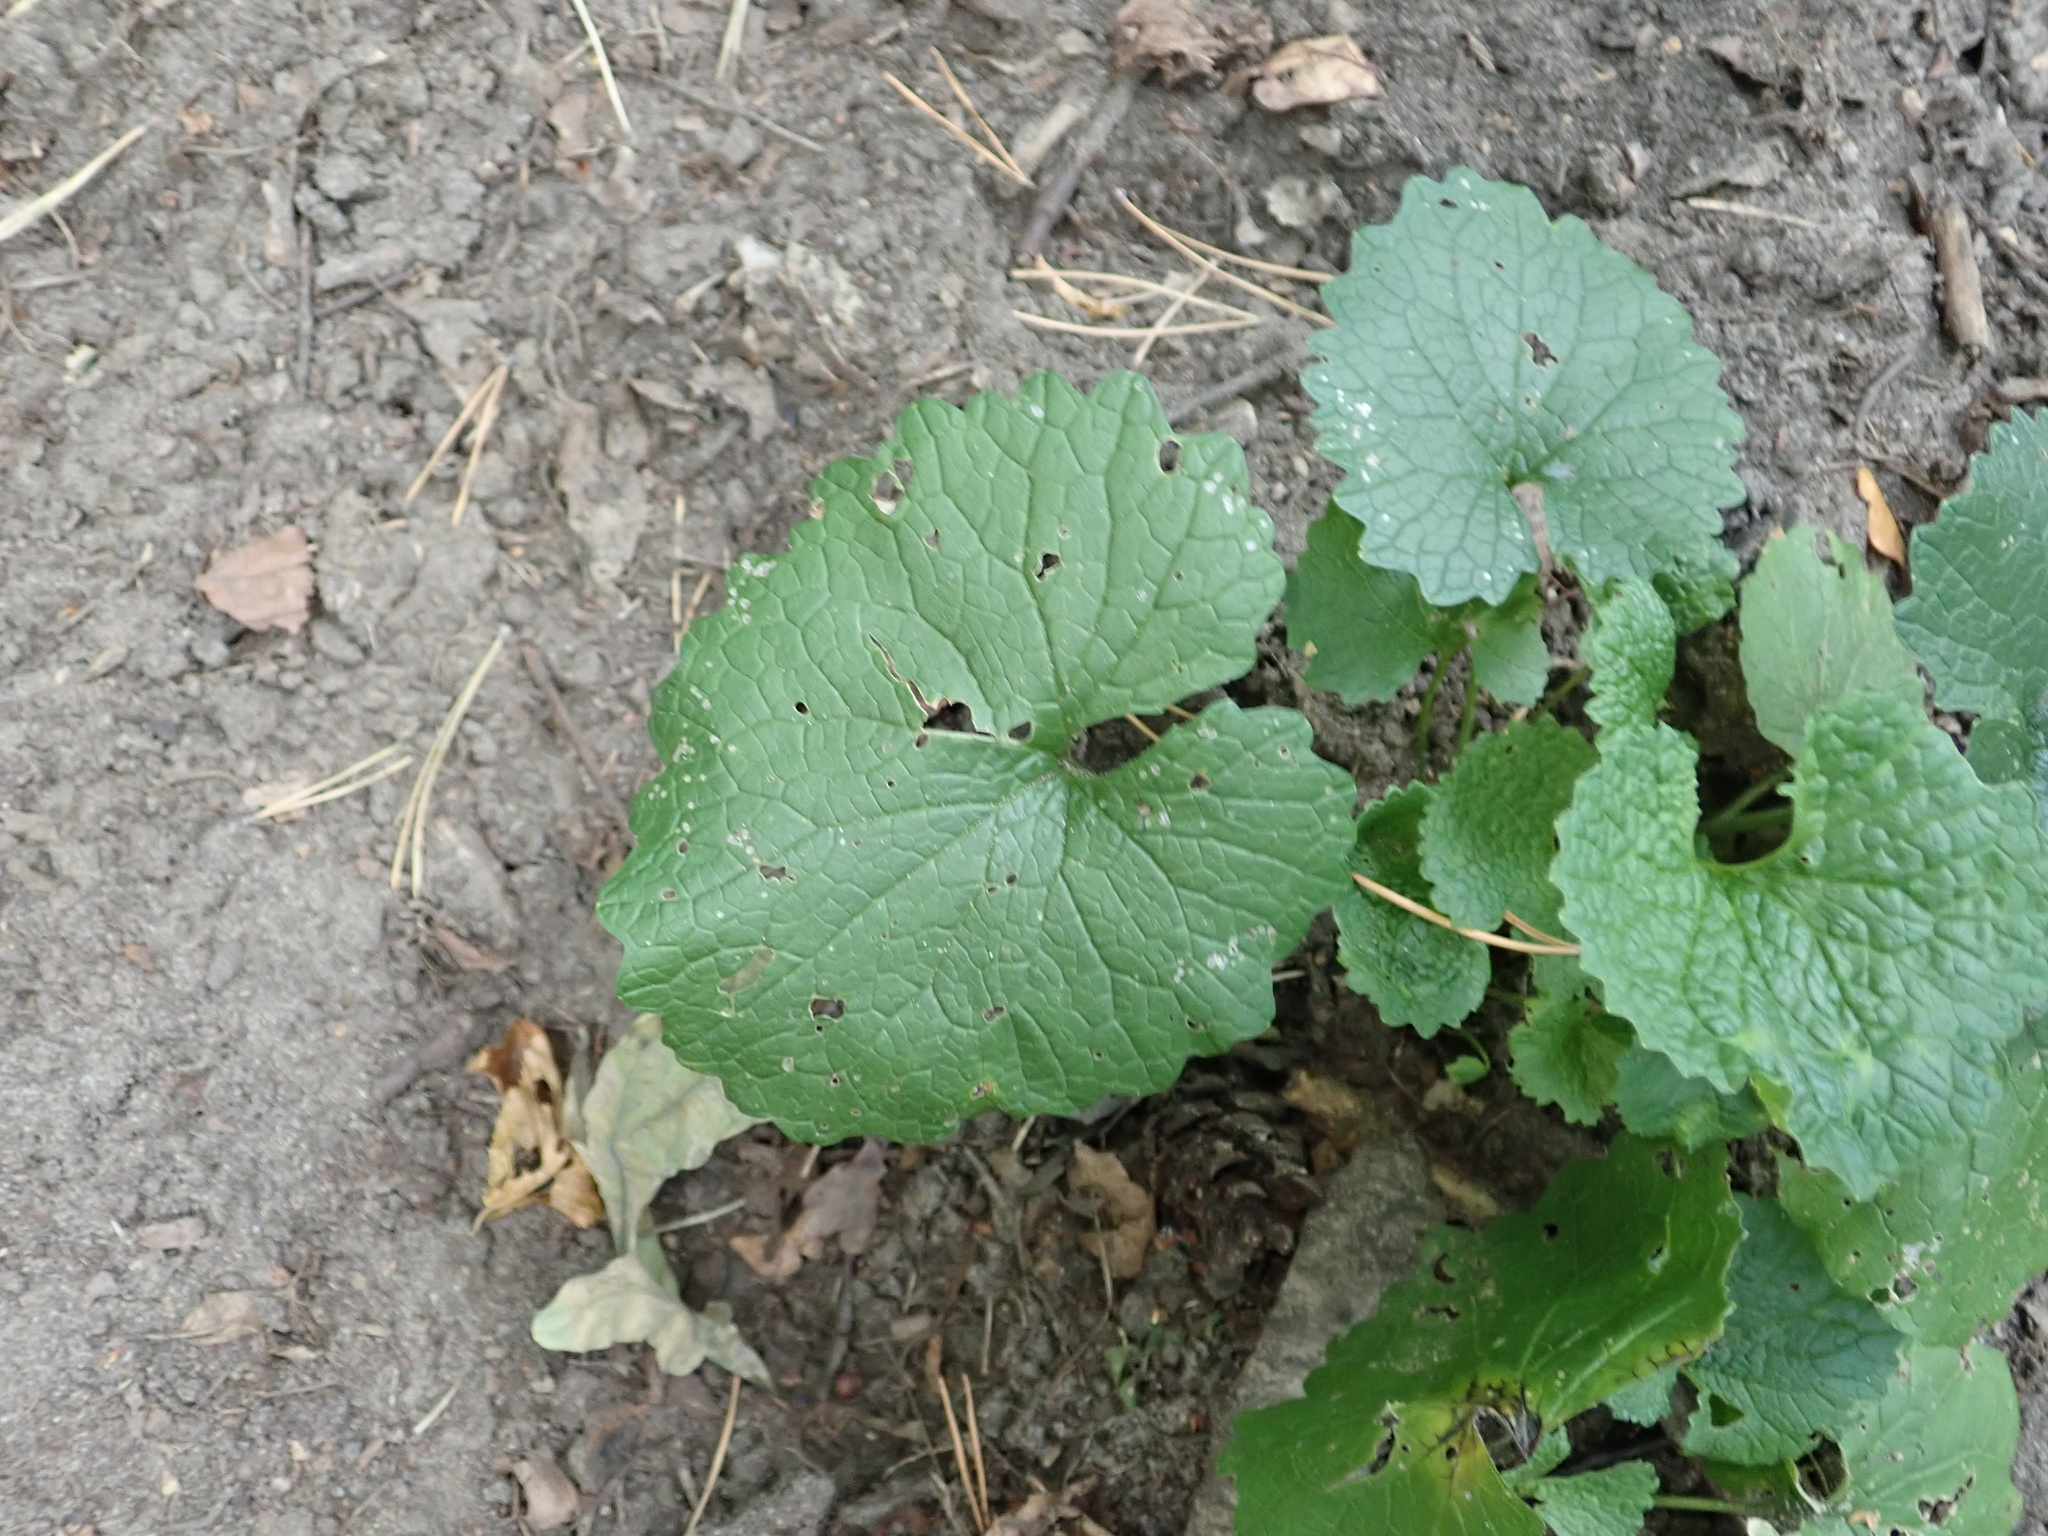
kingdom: Plantae
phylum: Tracheophyta
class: Magnoliopsida
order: Brassicales
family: Brassicaceae
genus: Alliaria
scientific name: Alliaria petiolata
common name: Garlic mustard
